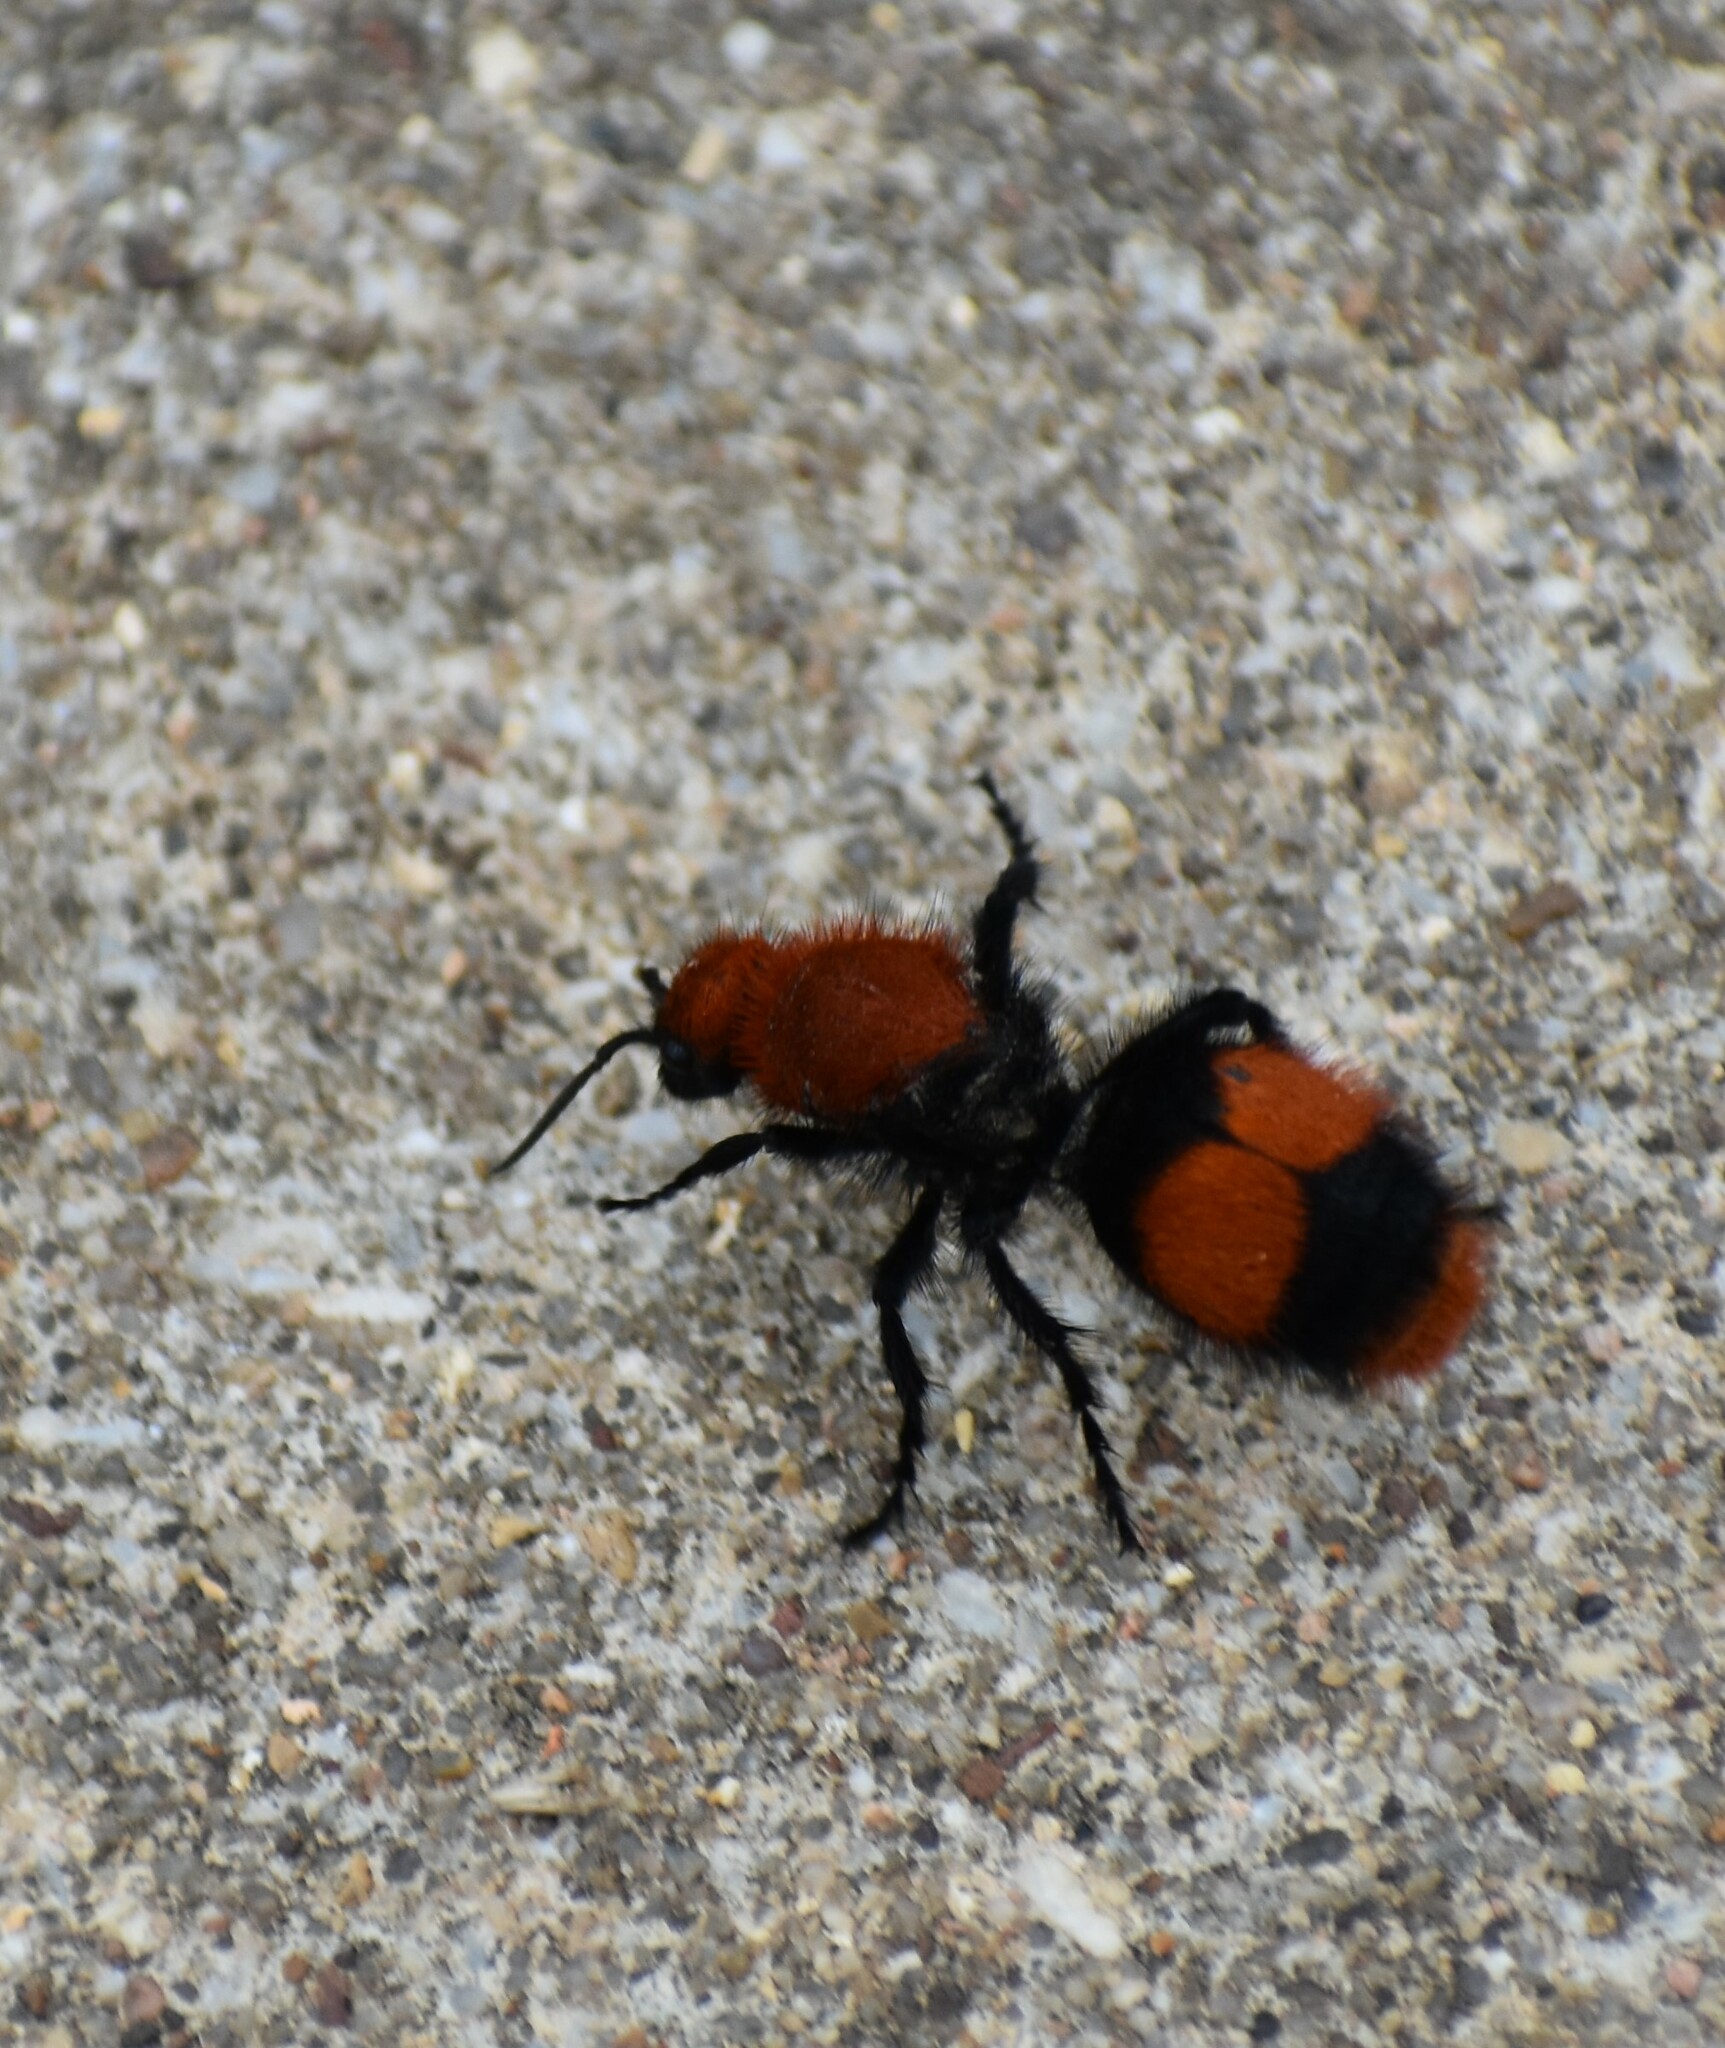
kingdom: Animalia
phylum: Arthropoda
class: Insecta
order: Hymenoptera
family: Mutillidae
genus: Dasymutilla
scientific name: Dasymutilla occidentalis
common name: Common eastern velvet ant
